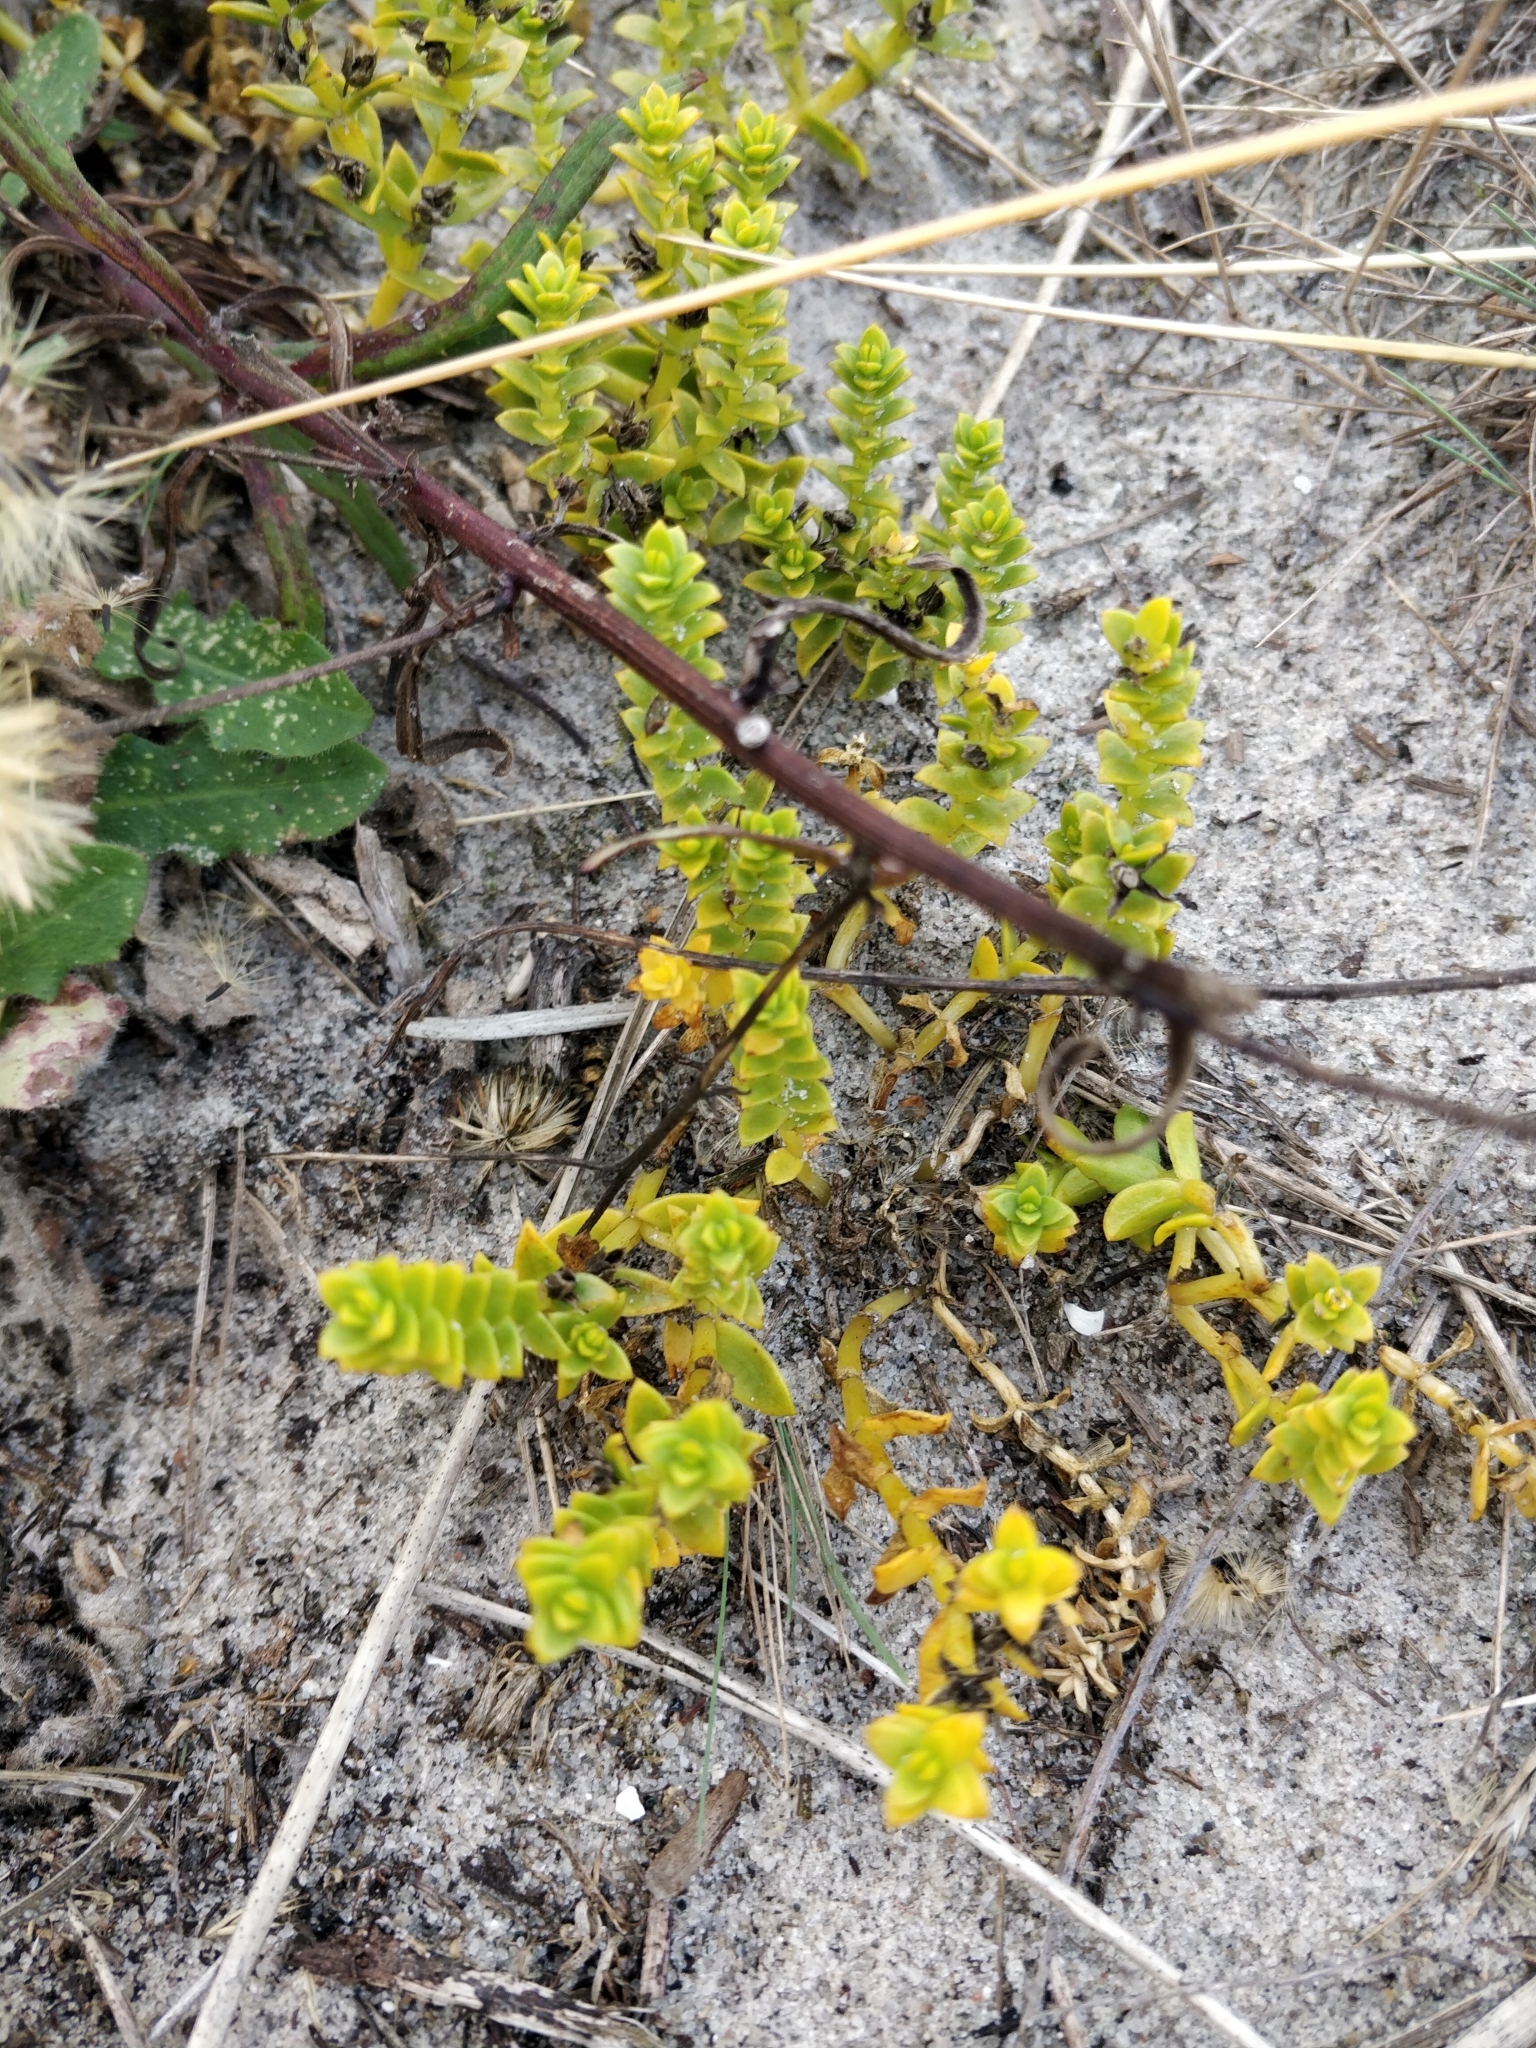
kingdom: Plantae
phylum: Tracheophyta
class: Magnoliopsida
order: Caryophyllales
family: Caryophyllaceae
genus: Honckenya
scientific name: Honckenya peploides
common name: Sea sandwort
